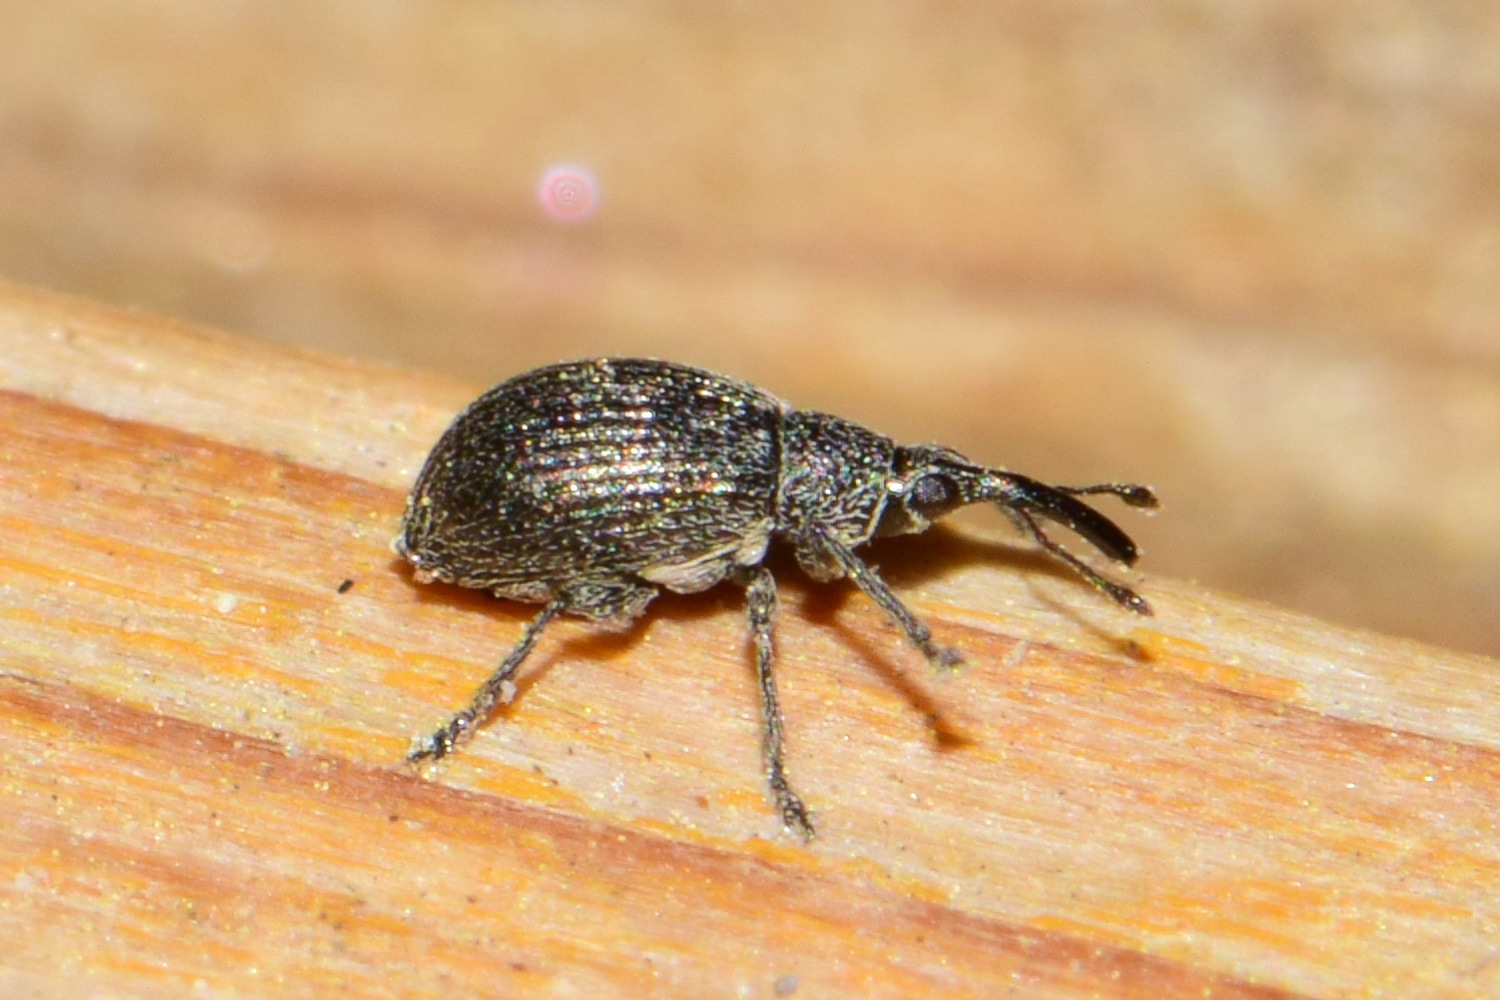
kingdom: Animalia
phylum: Arthropoda
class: Insecta
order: Coleoptera
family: Brentidae
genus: Betulapion
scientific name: Betulapion simile
